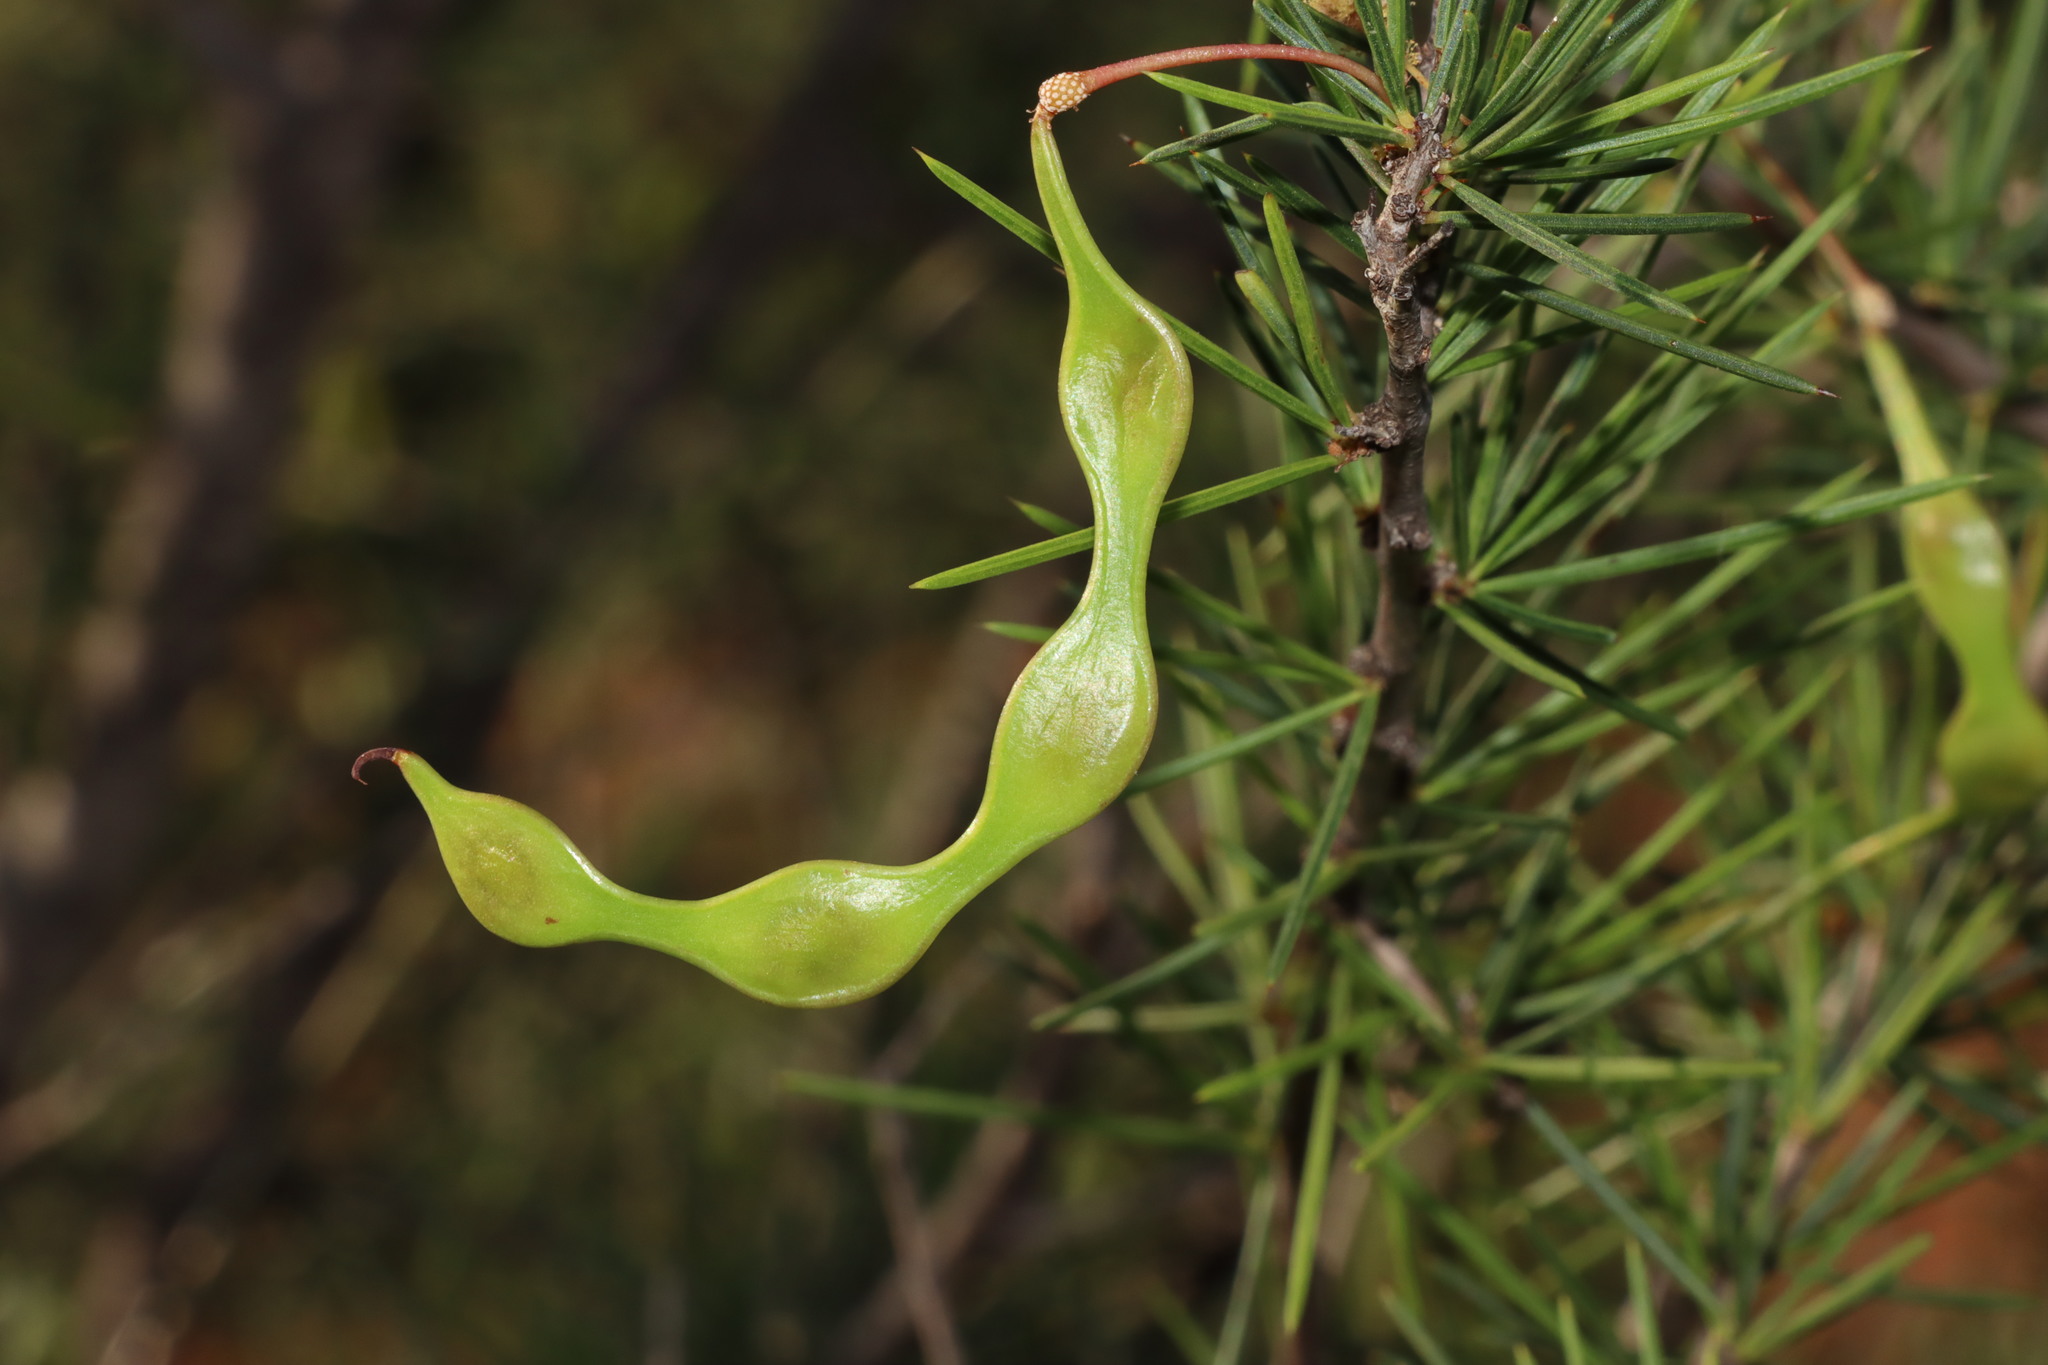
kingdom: Plantae
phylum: Tracheophyta
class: Magnoliopsida
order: Fabales
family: Fabaceae
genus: Acacia
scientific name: Acacia tetragonophylla
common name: Dead finish
